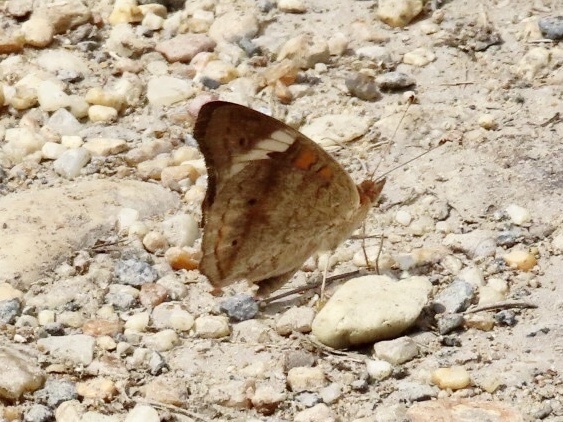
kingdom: Animalia
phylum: Arthropoda
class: Insecta
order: Lepidoptera
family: Nymphalidae
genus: Junonia
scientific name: Junonia coenia
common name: Common buckeye
